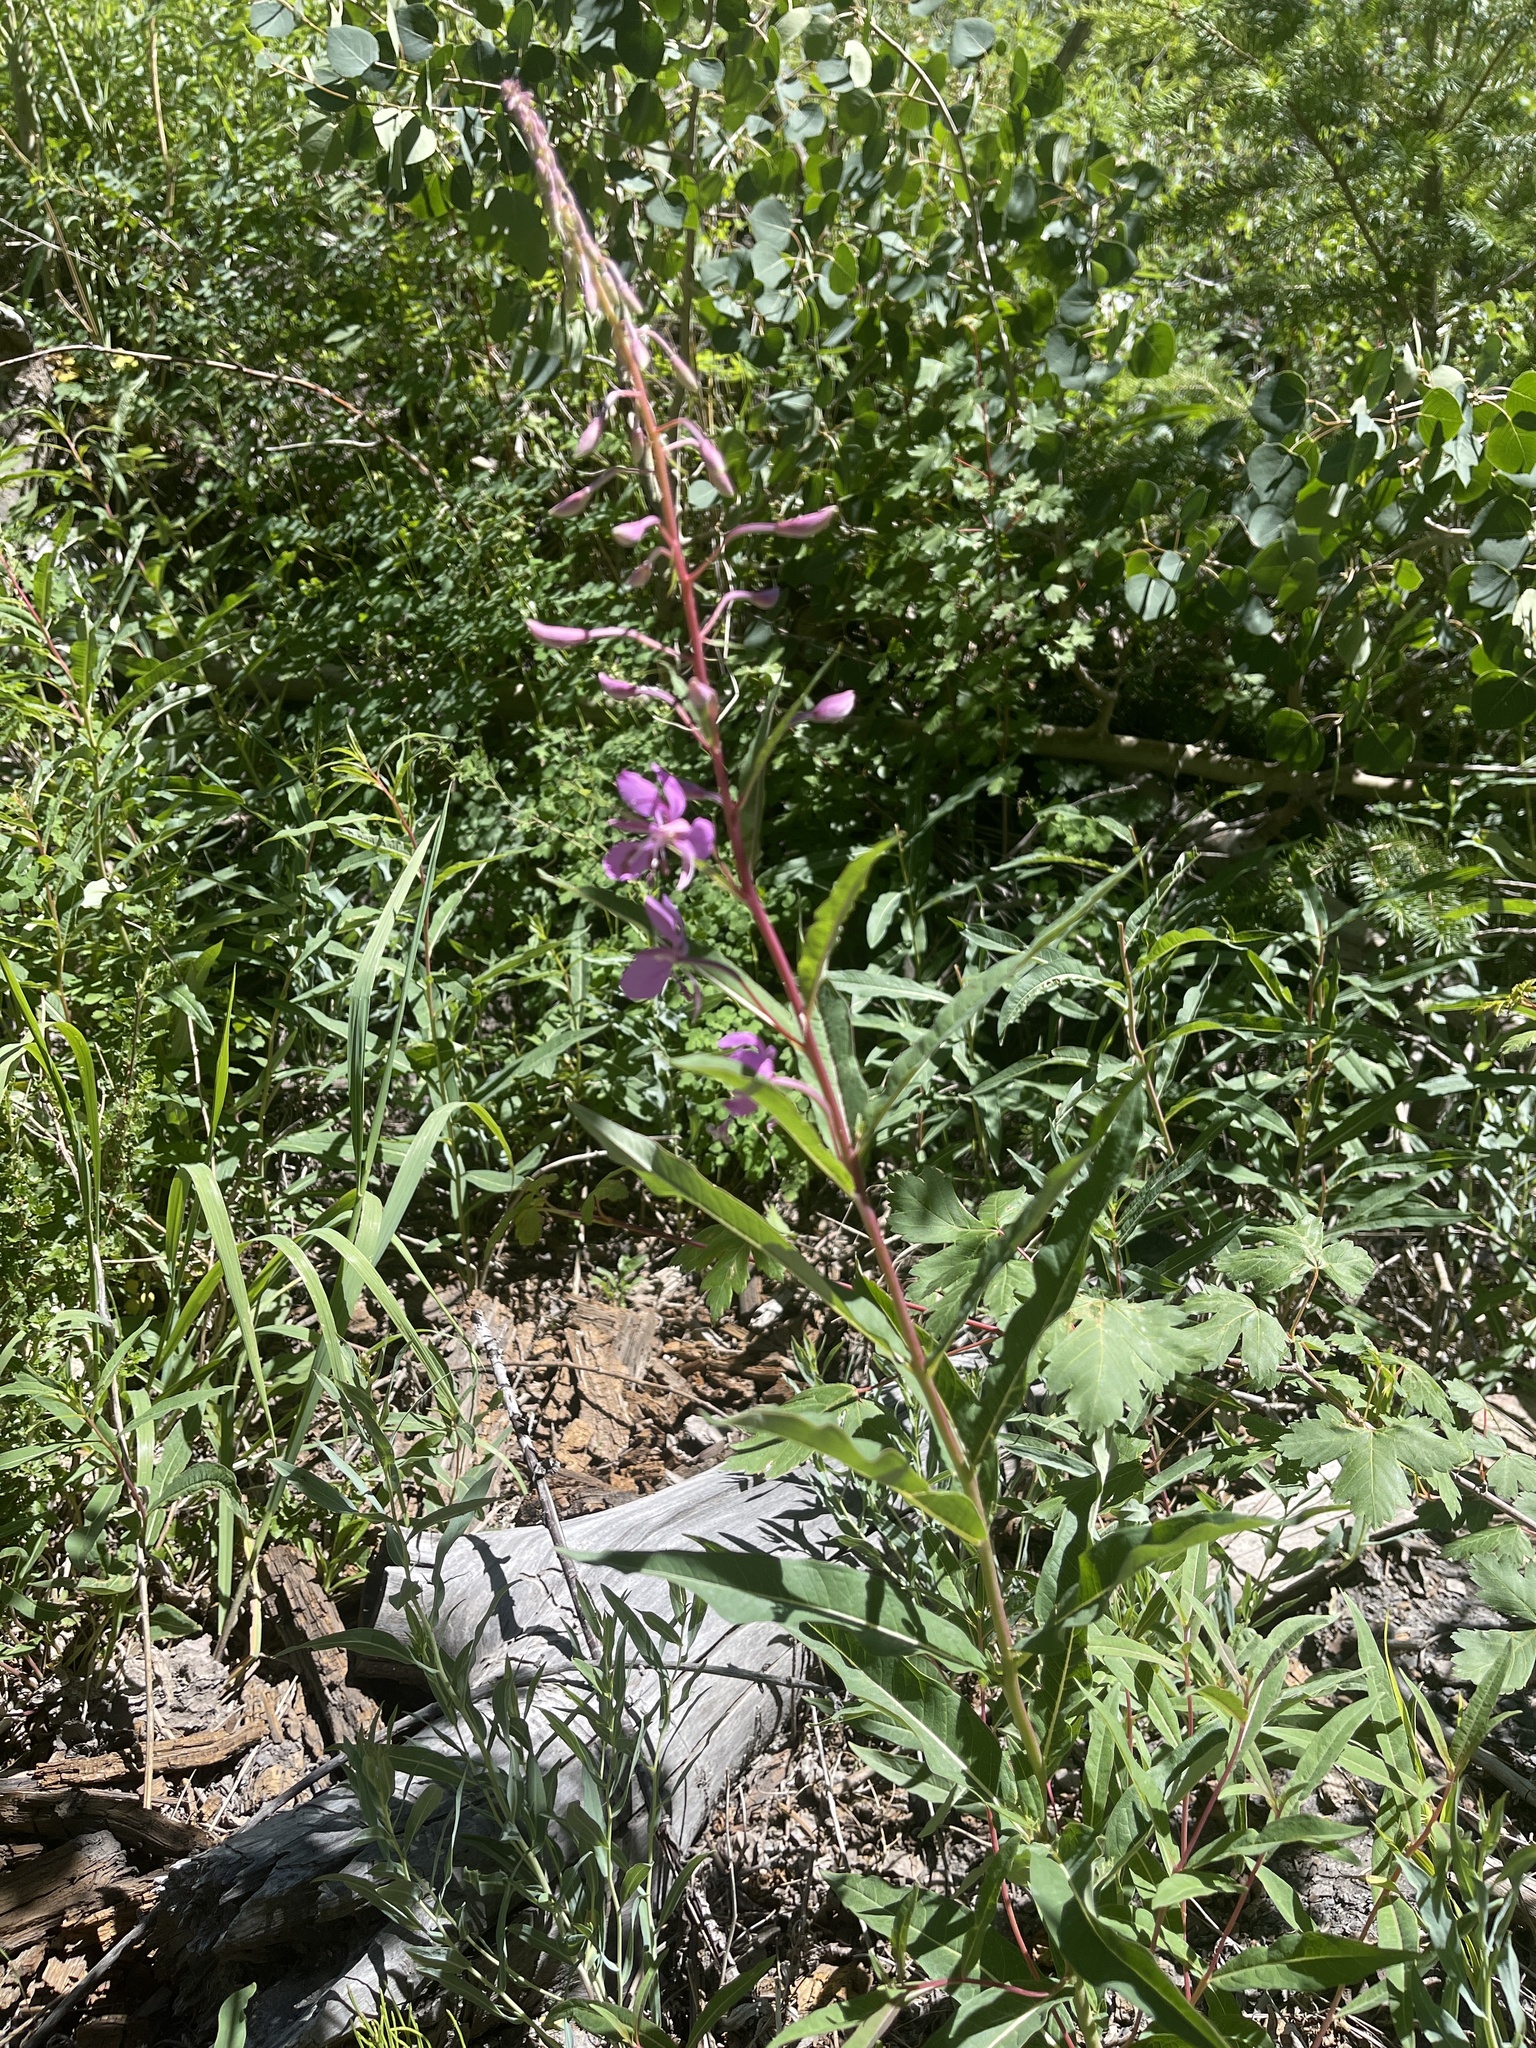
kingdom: Plantae
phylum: Tracheophyta
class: Magnoliopsida
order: Myrtales
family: Onagraceae
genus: Chamaenerion
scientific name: Chamaenerion angustifolium
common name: Fireweed
